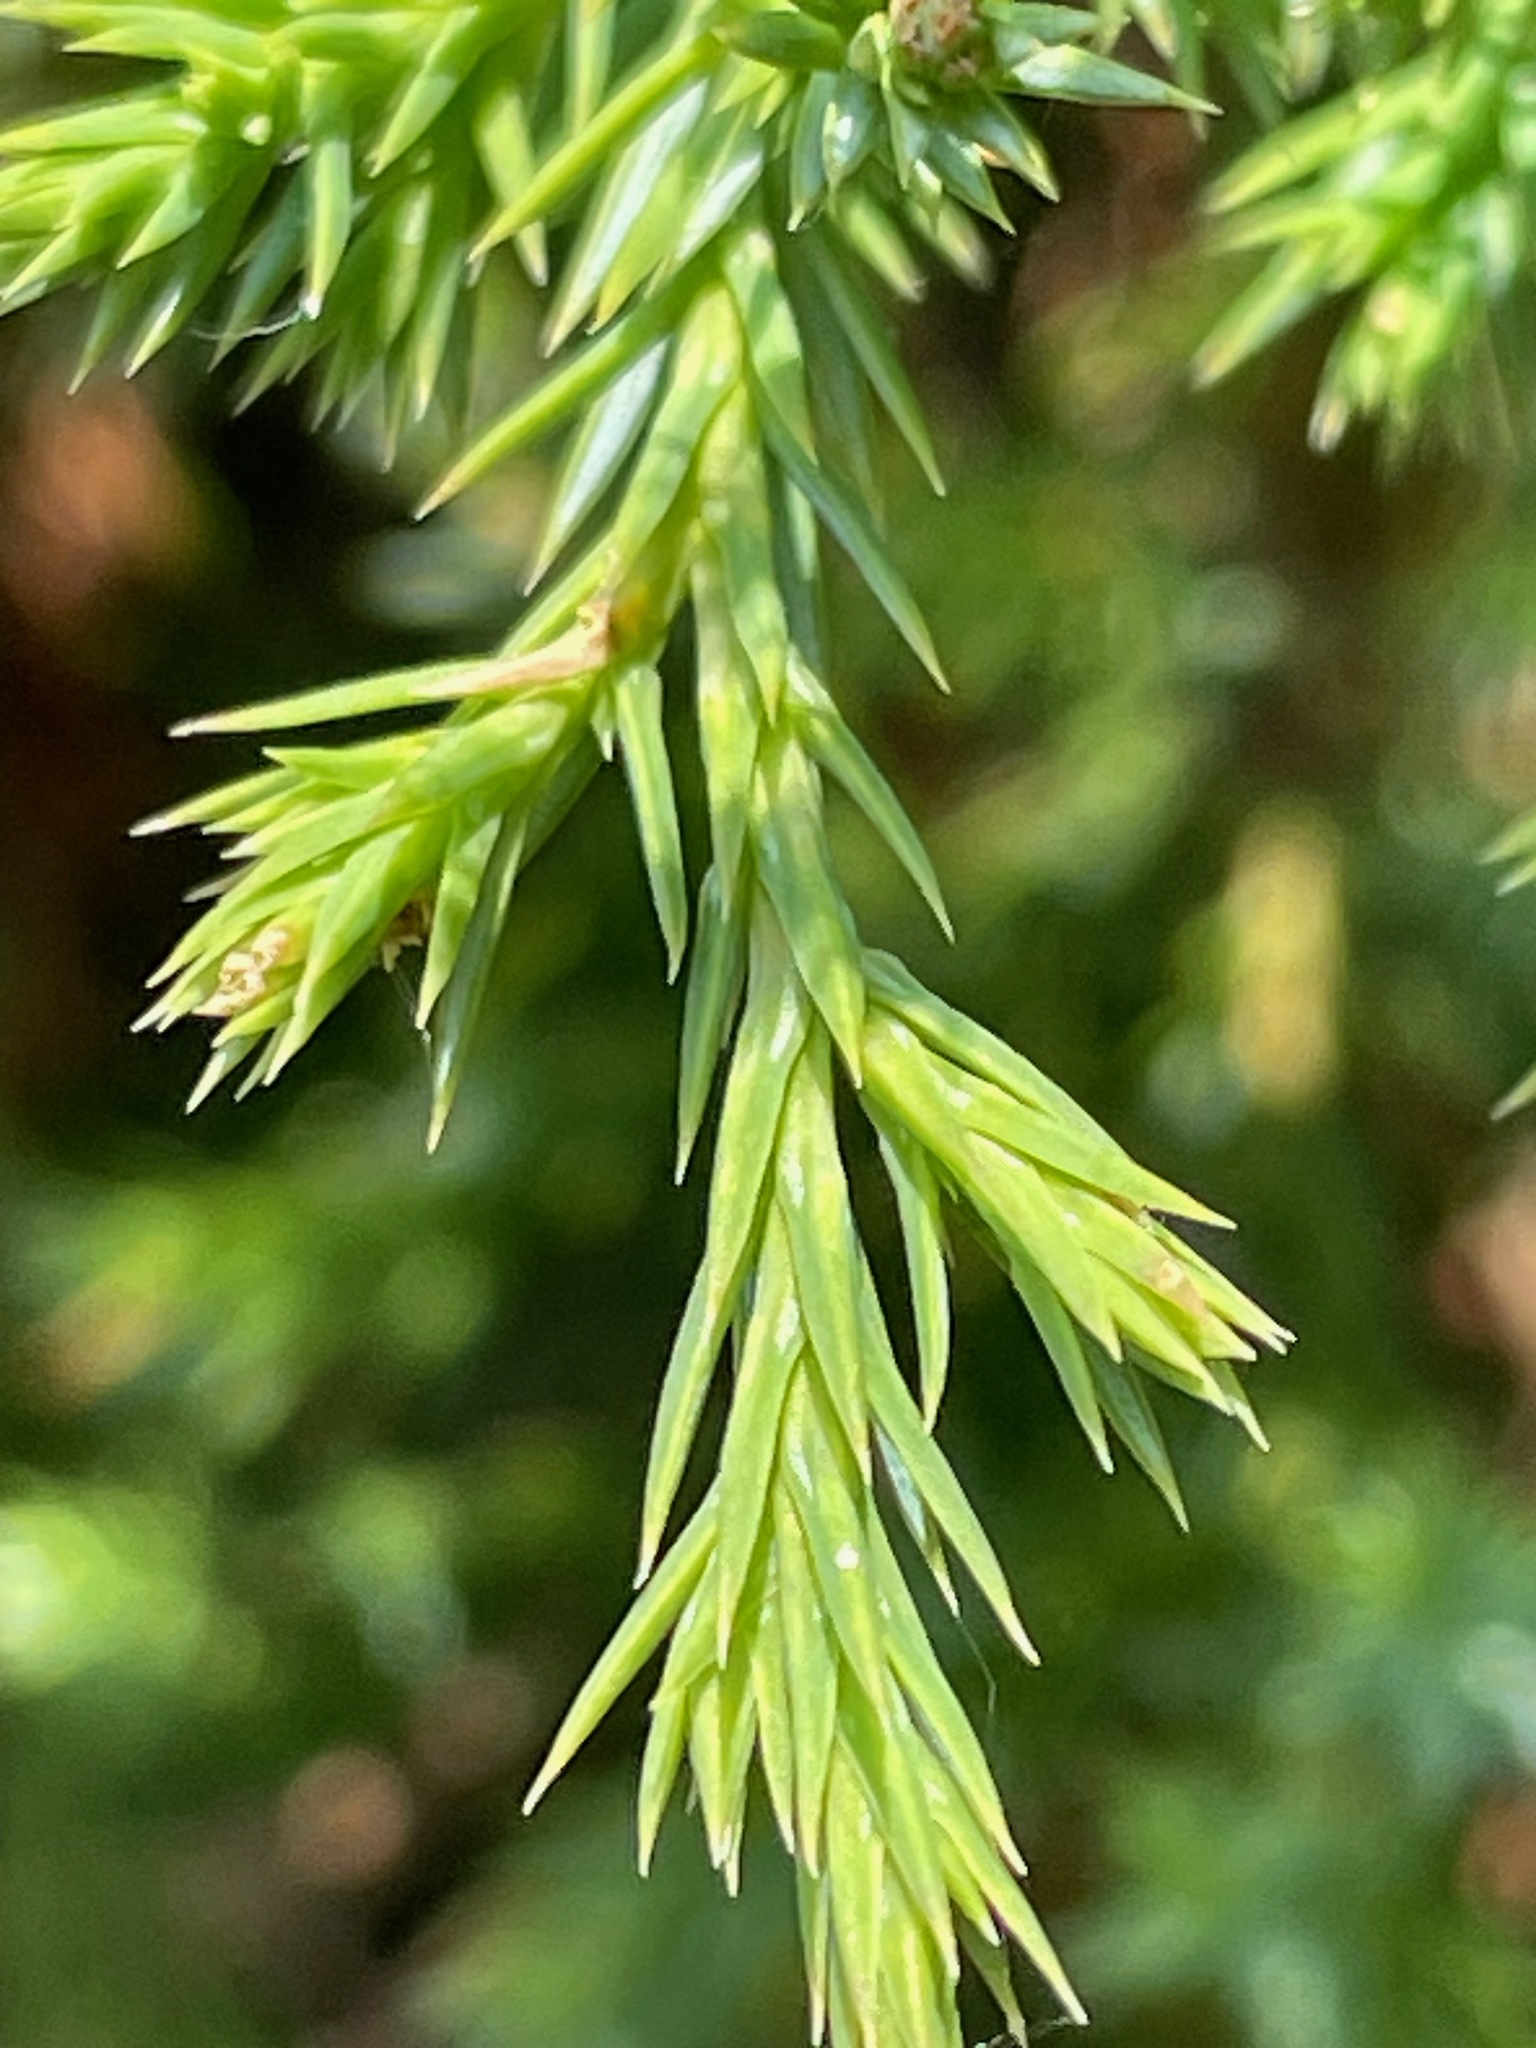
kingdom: Plantae
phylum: Tracheophyta
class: Pinopsida
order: Pinales
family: Cupressaceae
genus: Juniperus
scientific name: Juniperus virginiana
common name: Red juniper
